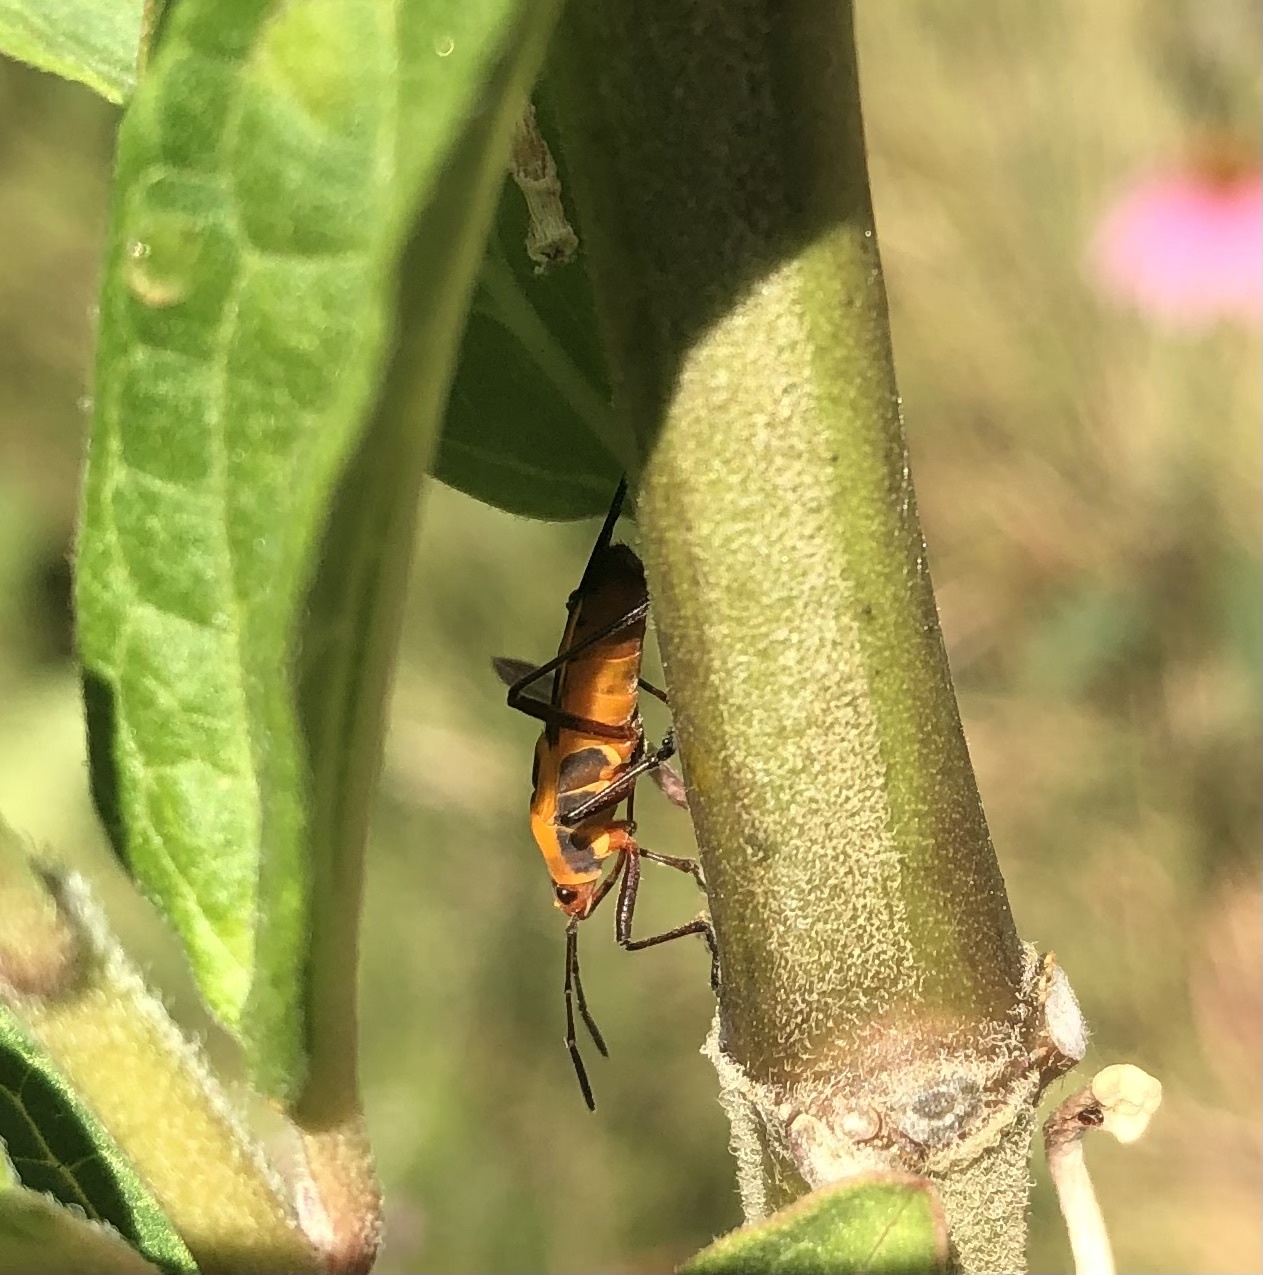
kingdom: Animalia
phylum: Arthropoda
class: Insecta
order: Hemiptera
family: Lygaeidae
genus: Oncopeltus
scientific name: Oncopeltus fasciatus
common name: Large milkweed bug
